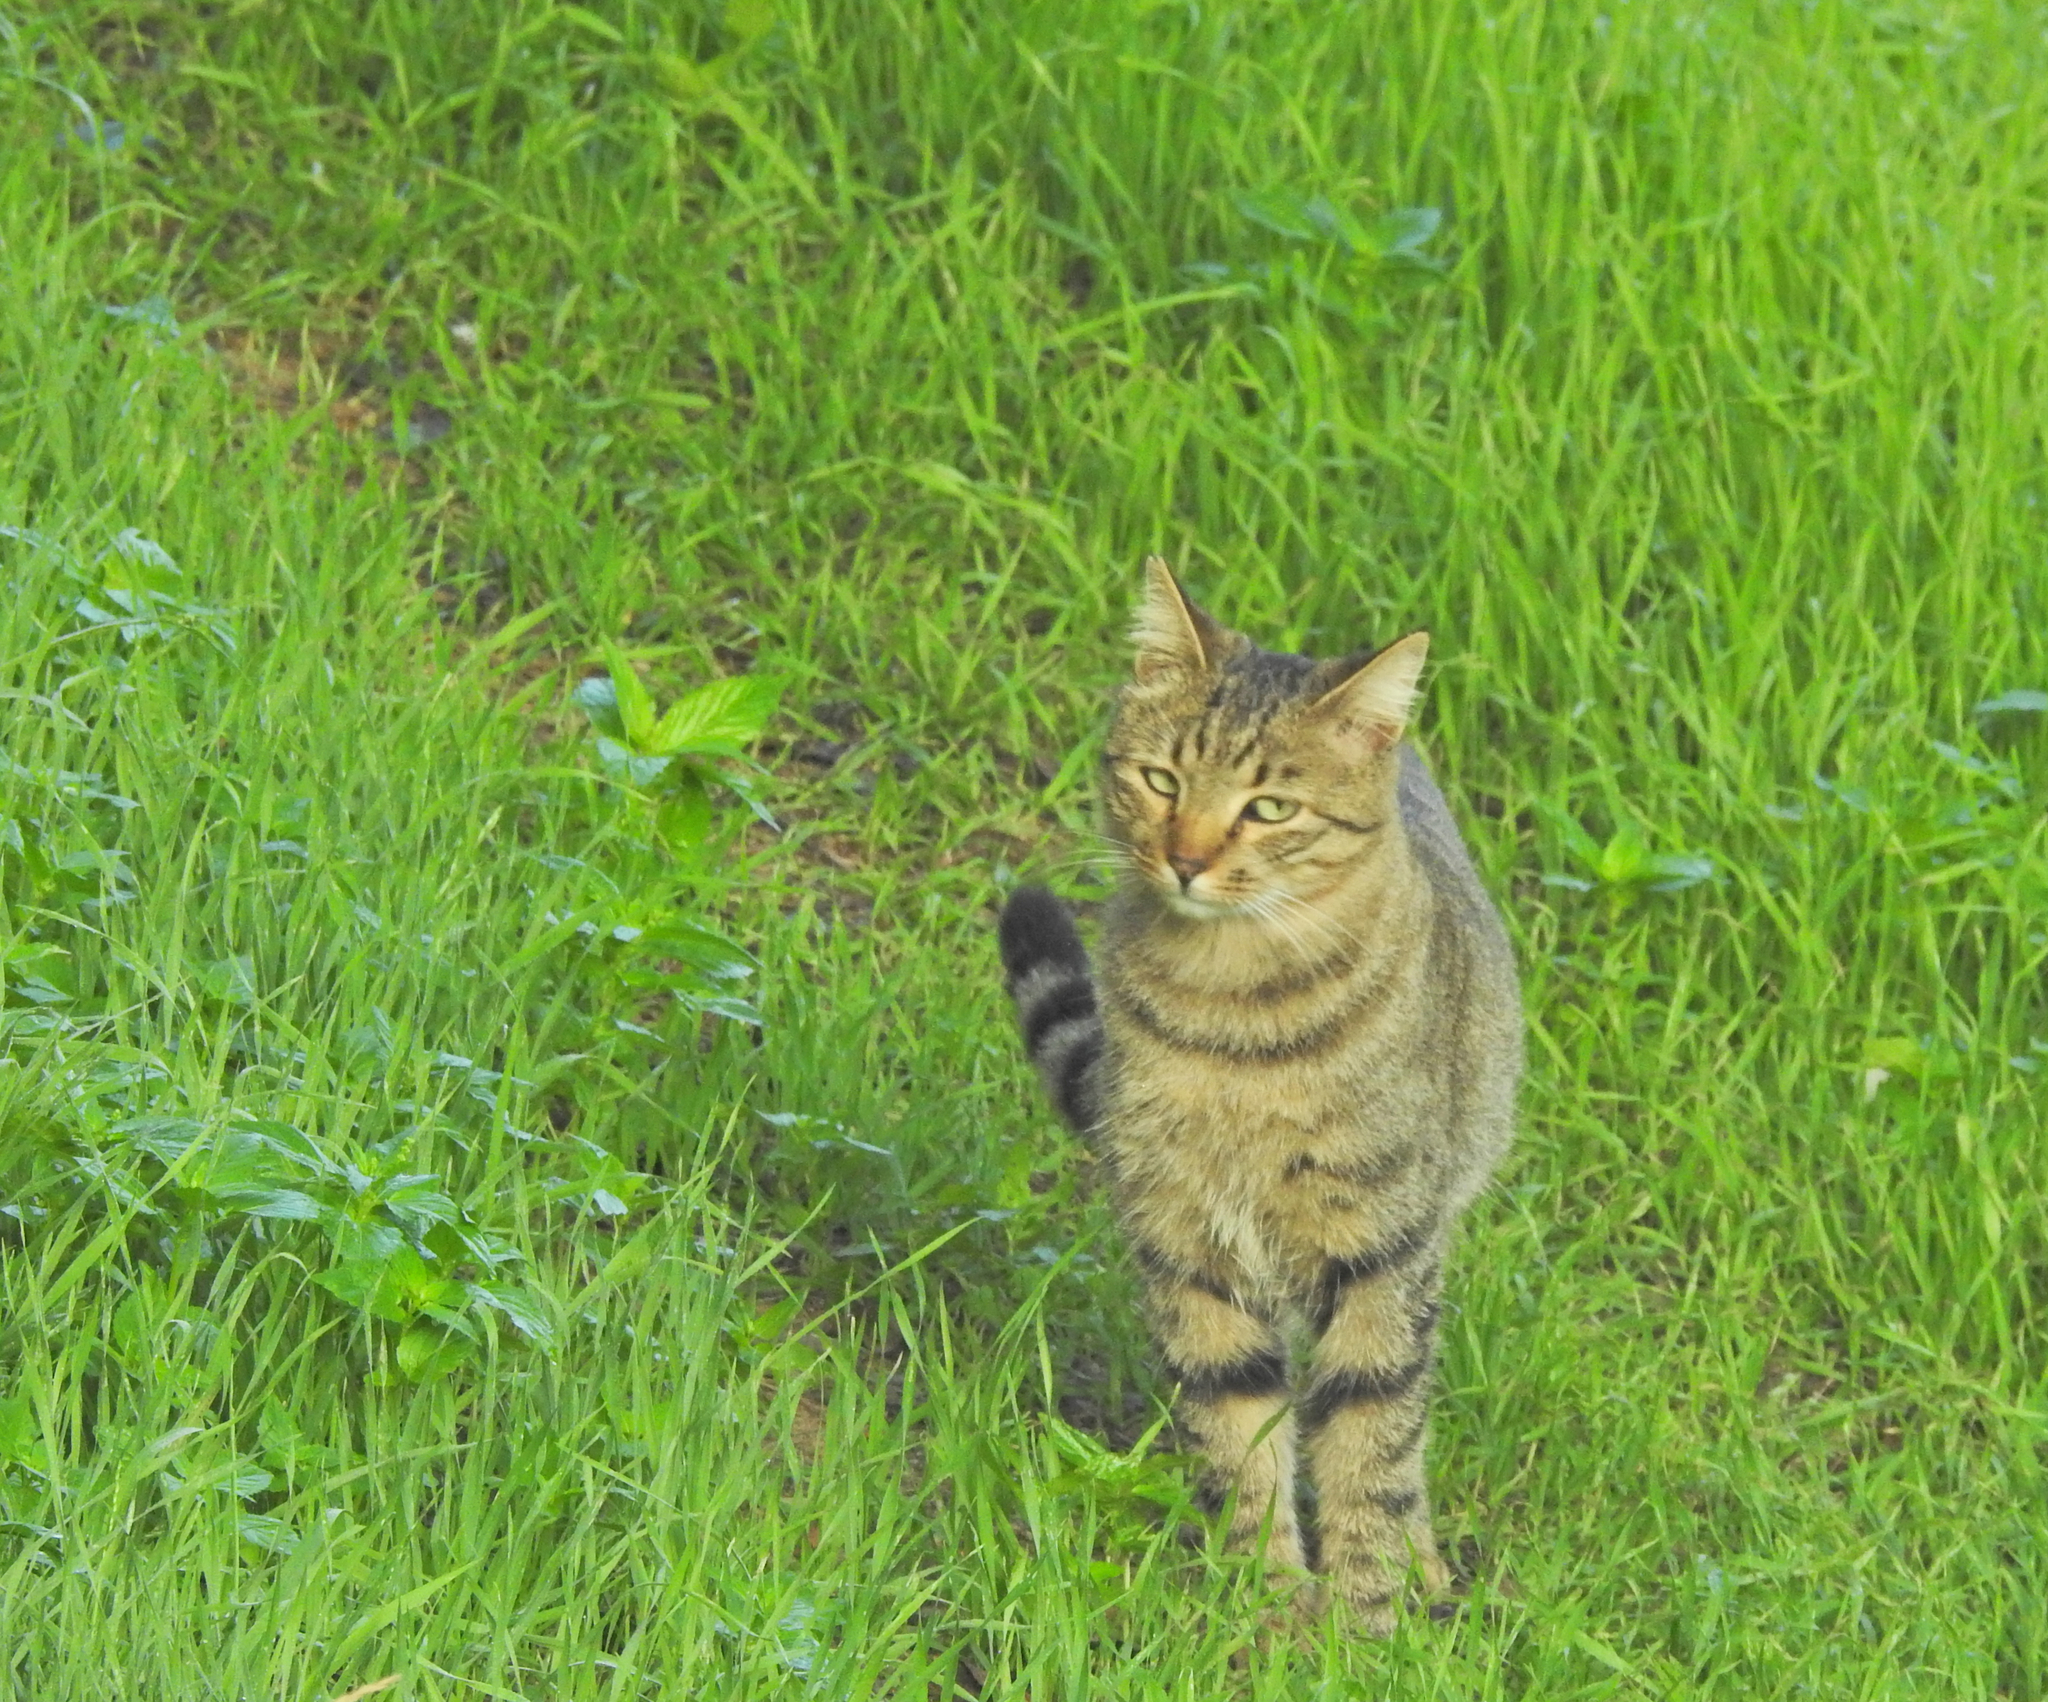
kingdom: Animalia
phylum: Chordata
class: Mammalia
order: Carnivora
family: Felidae
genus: Felis
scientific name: Felis catus
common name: Domestic cat
